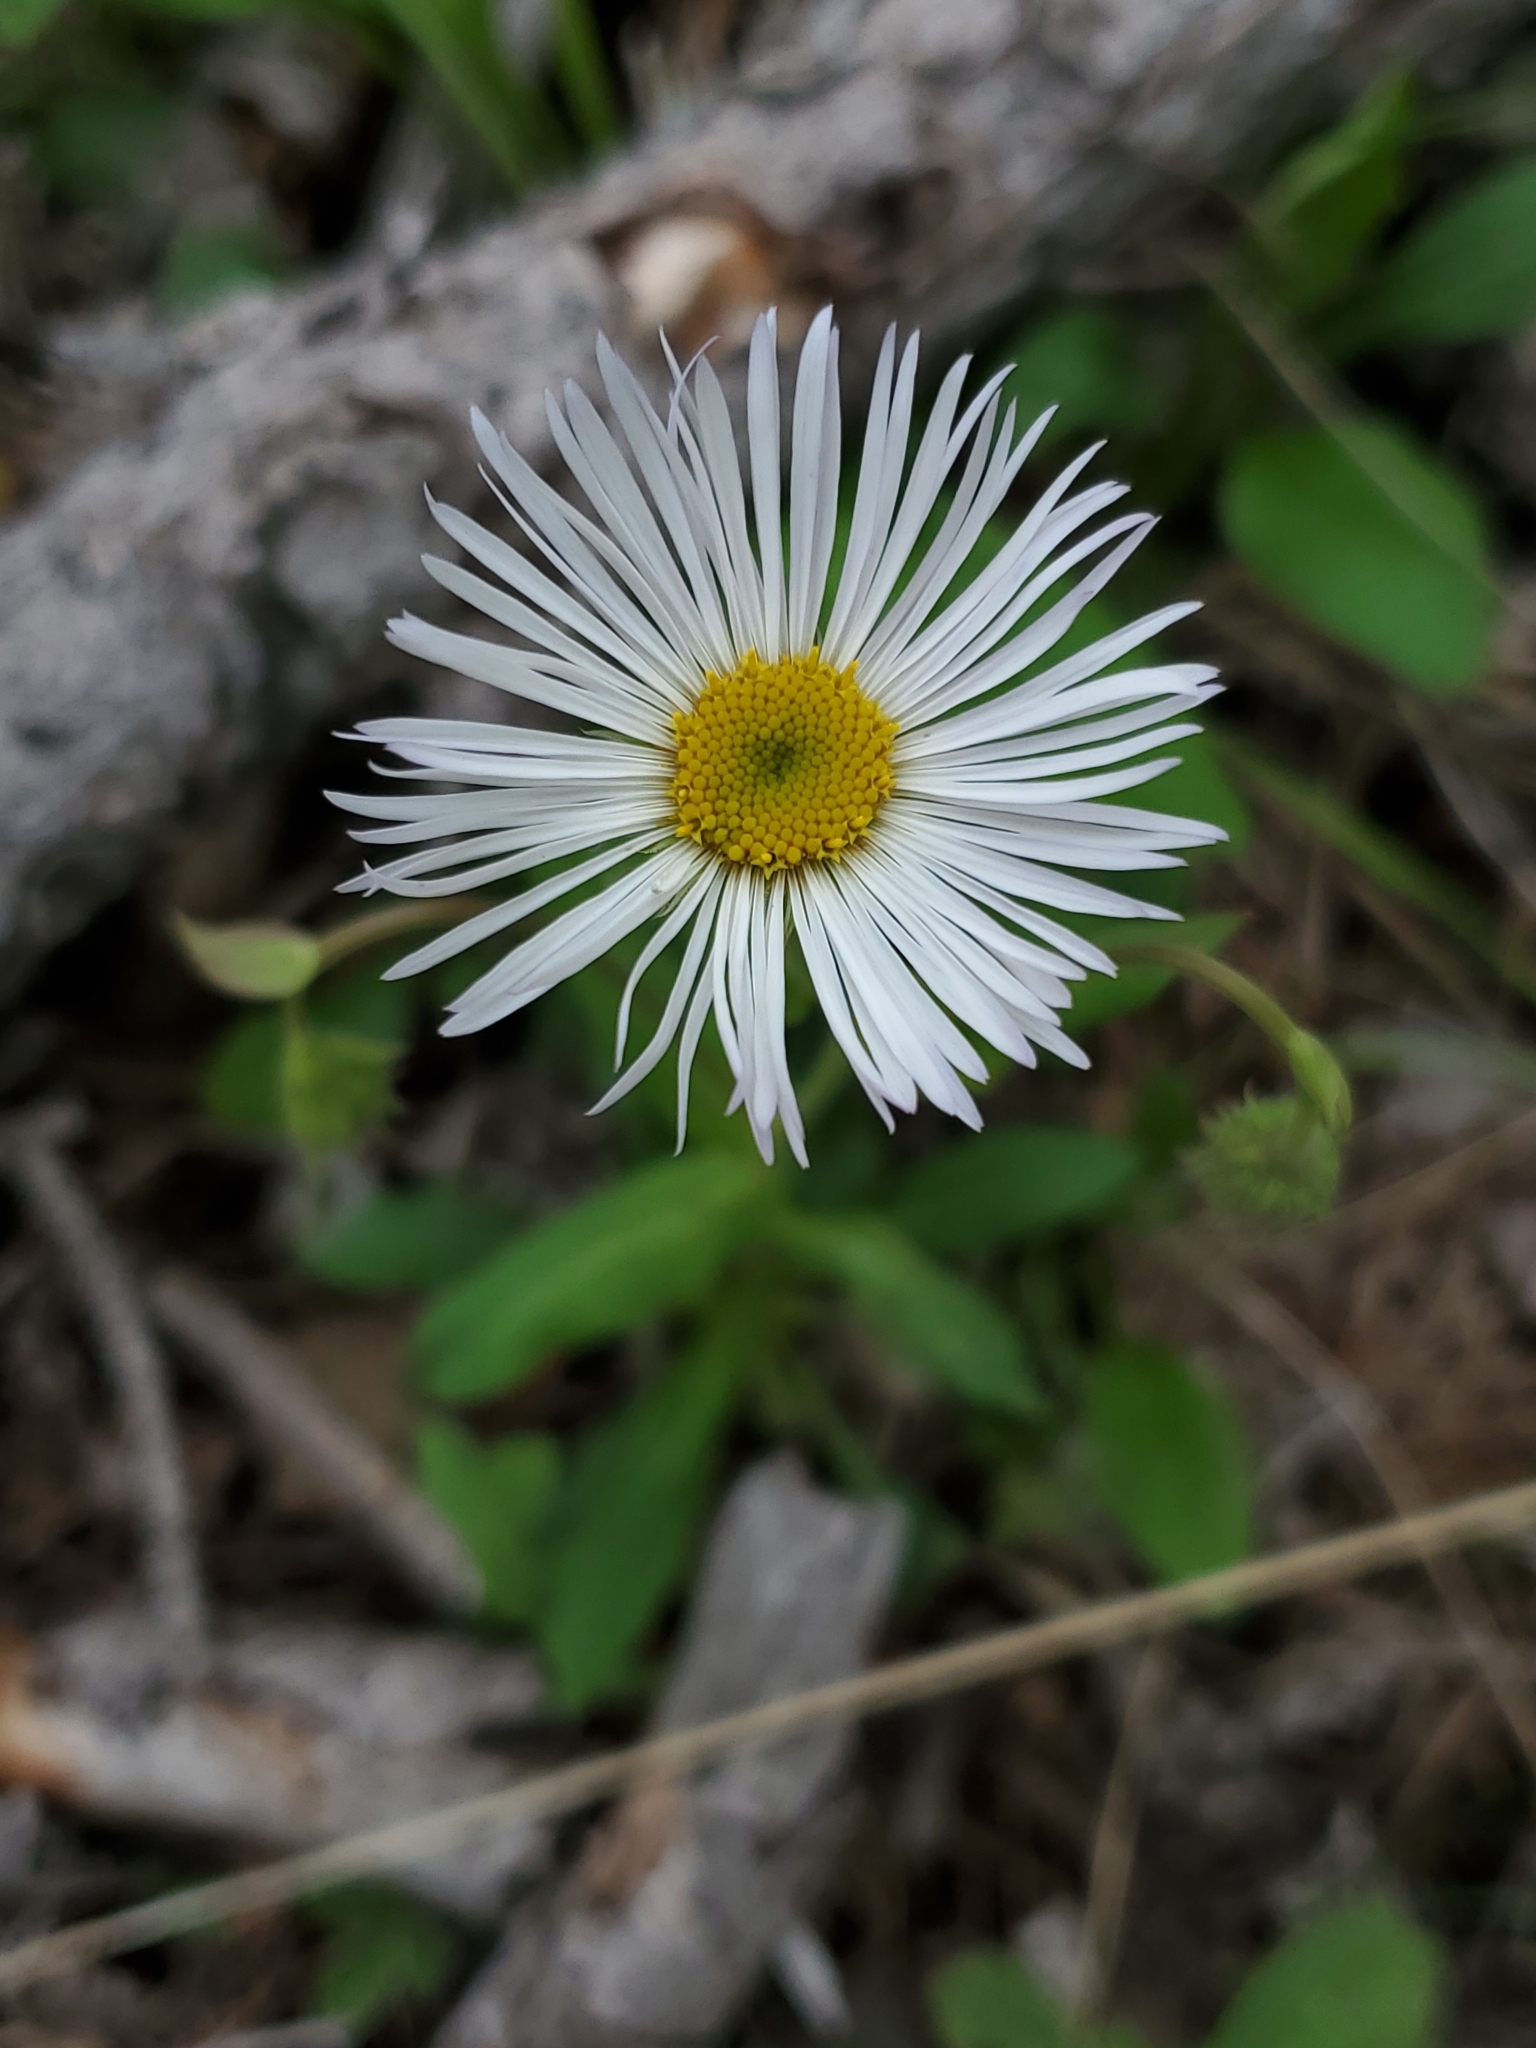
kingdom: Plantae
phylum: Tracheophyta
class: Magnoliopsida
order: Asterales
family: Asteraceae
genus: Erigeron
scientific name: Erigeron eximius
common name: Spruce-fir fleabane
